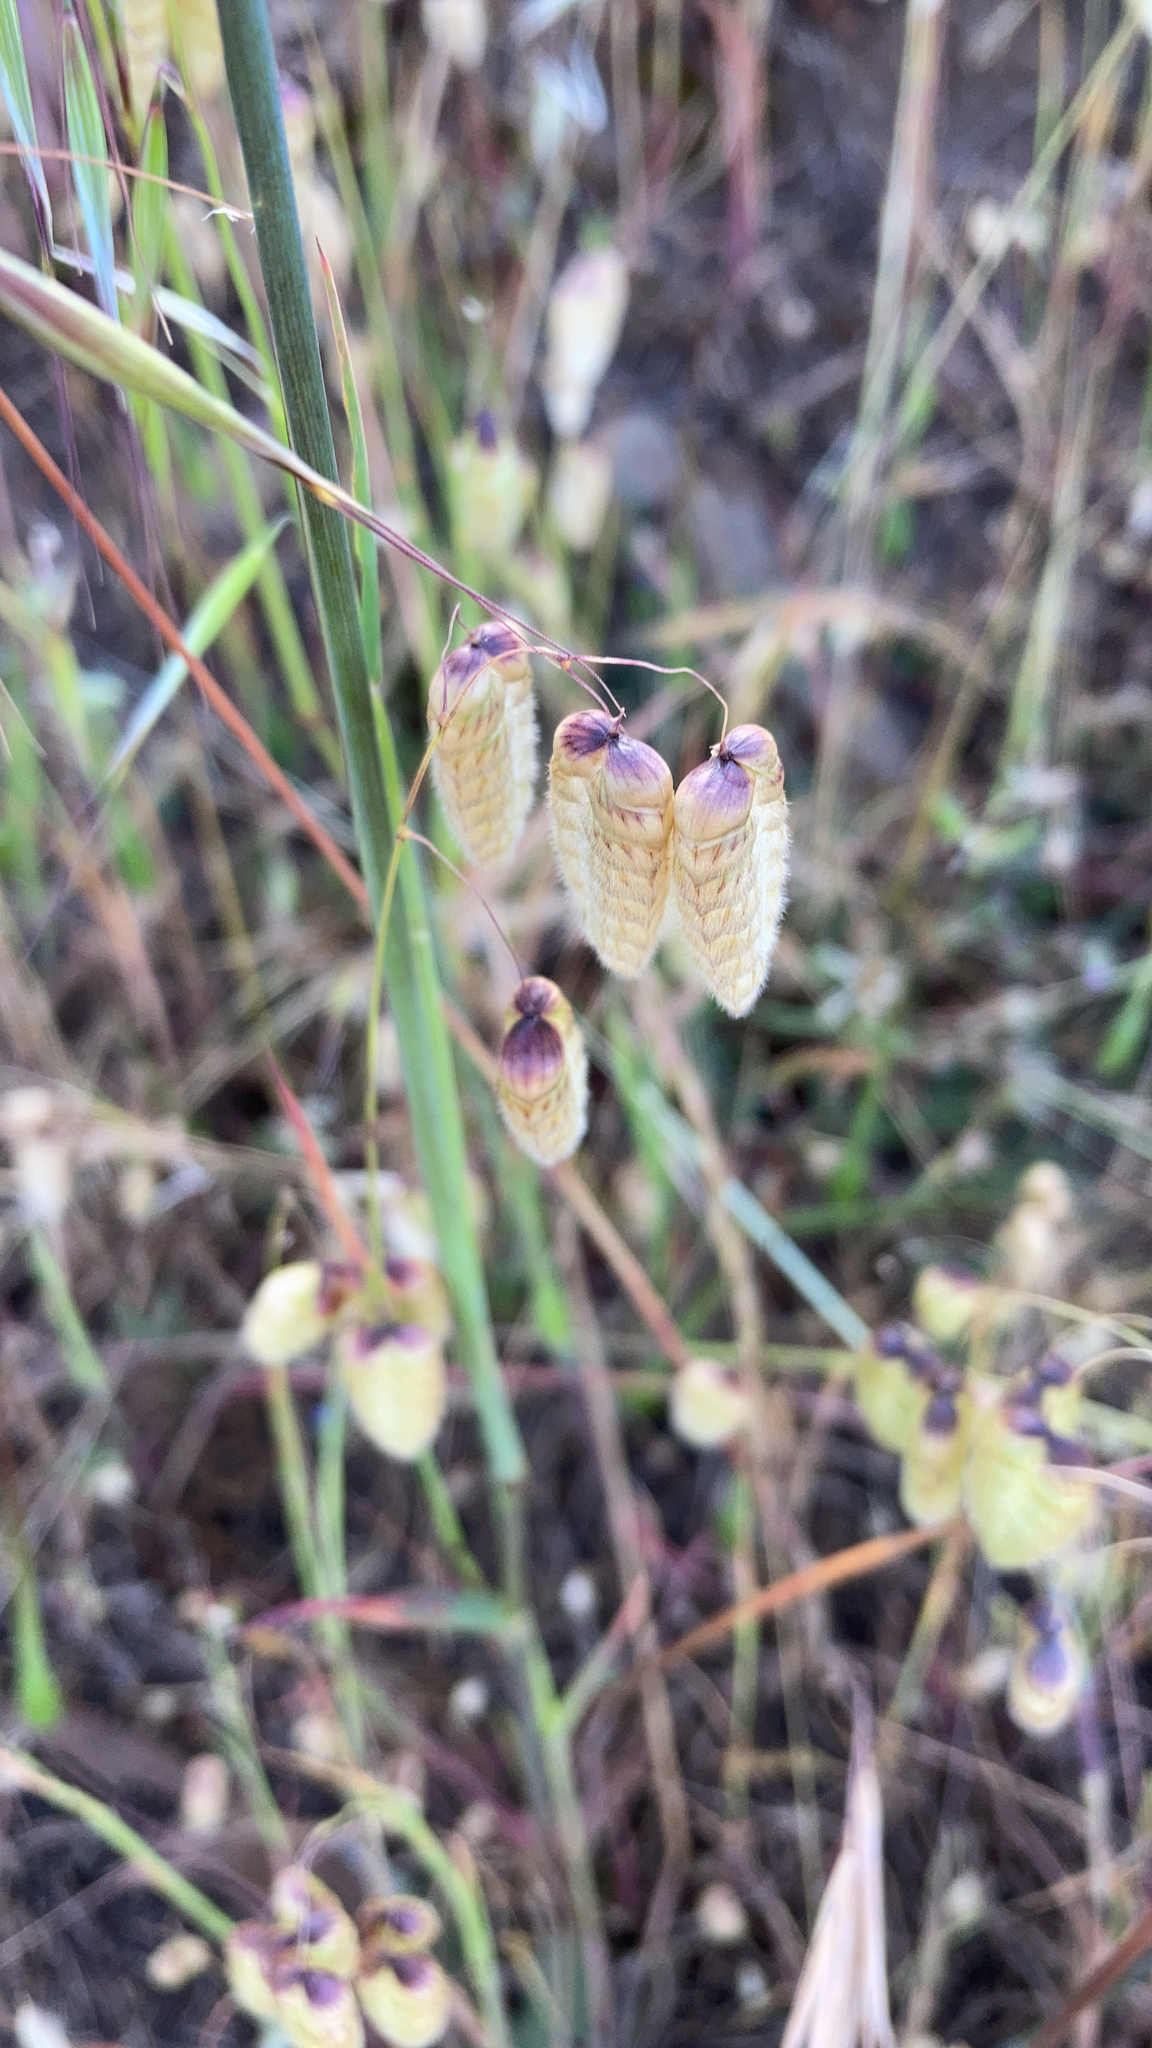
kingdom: Plantae
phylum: Tracheophyta
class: Liliopsida
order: Poales
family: Poaceae
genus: Briza
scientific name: Briza maxima
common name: Big quakinggrass
